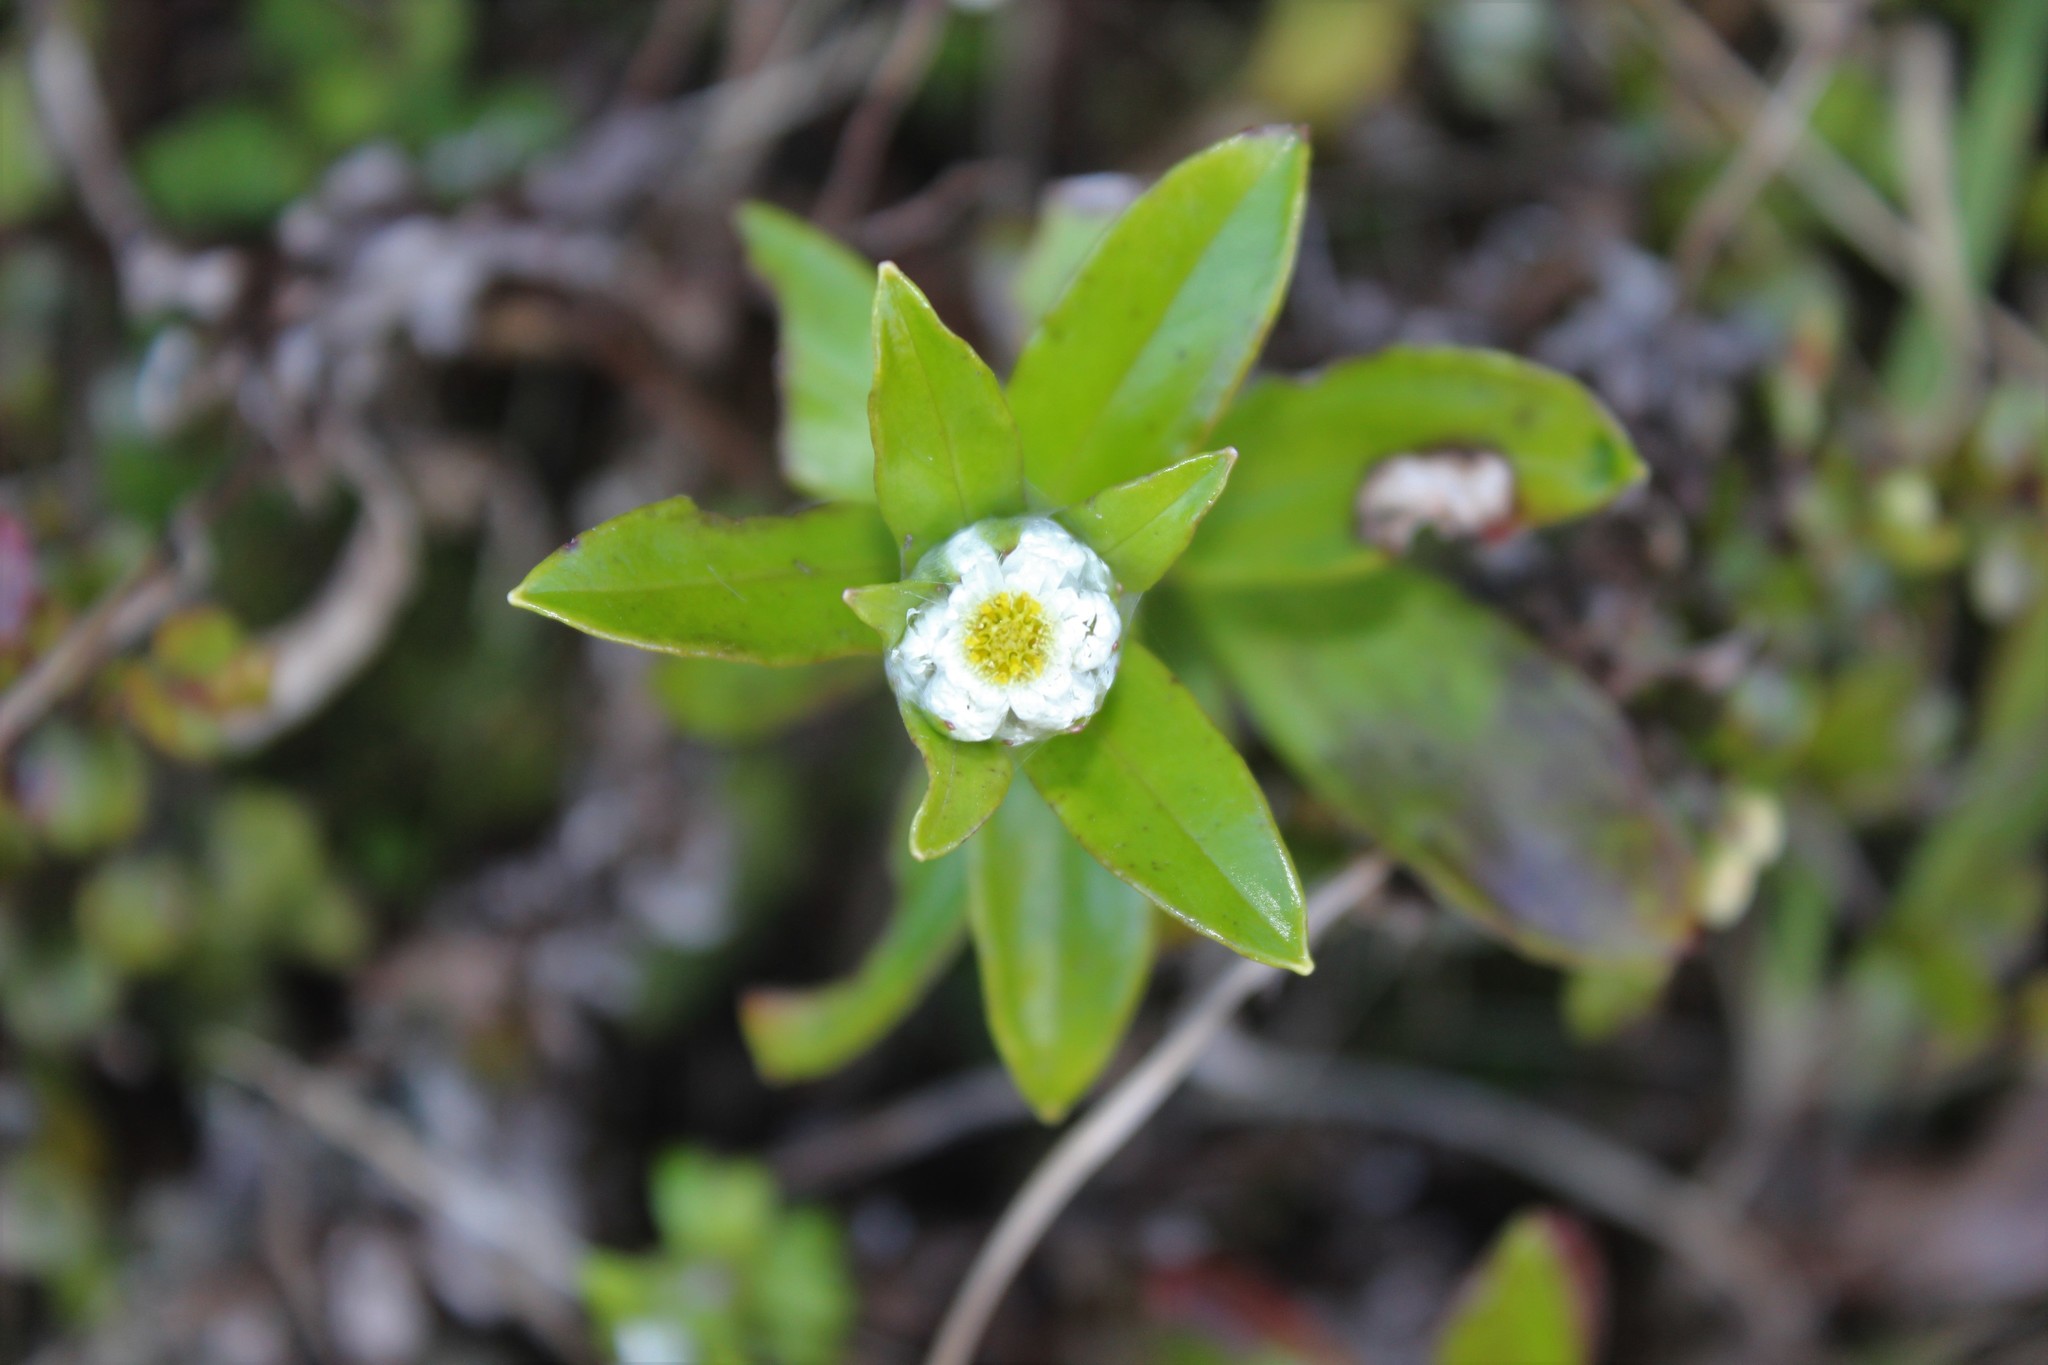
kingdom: Plantae
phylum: Tracheophyta
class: Magnoliopsida
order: Asterales
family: Asteraceae
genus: Anaphalioides
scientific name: Anaphalioides trinervis
